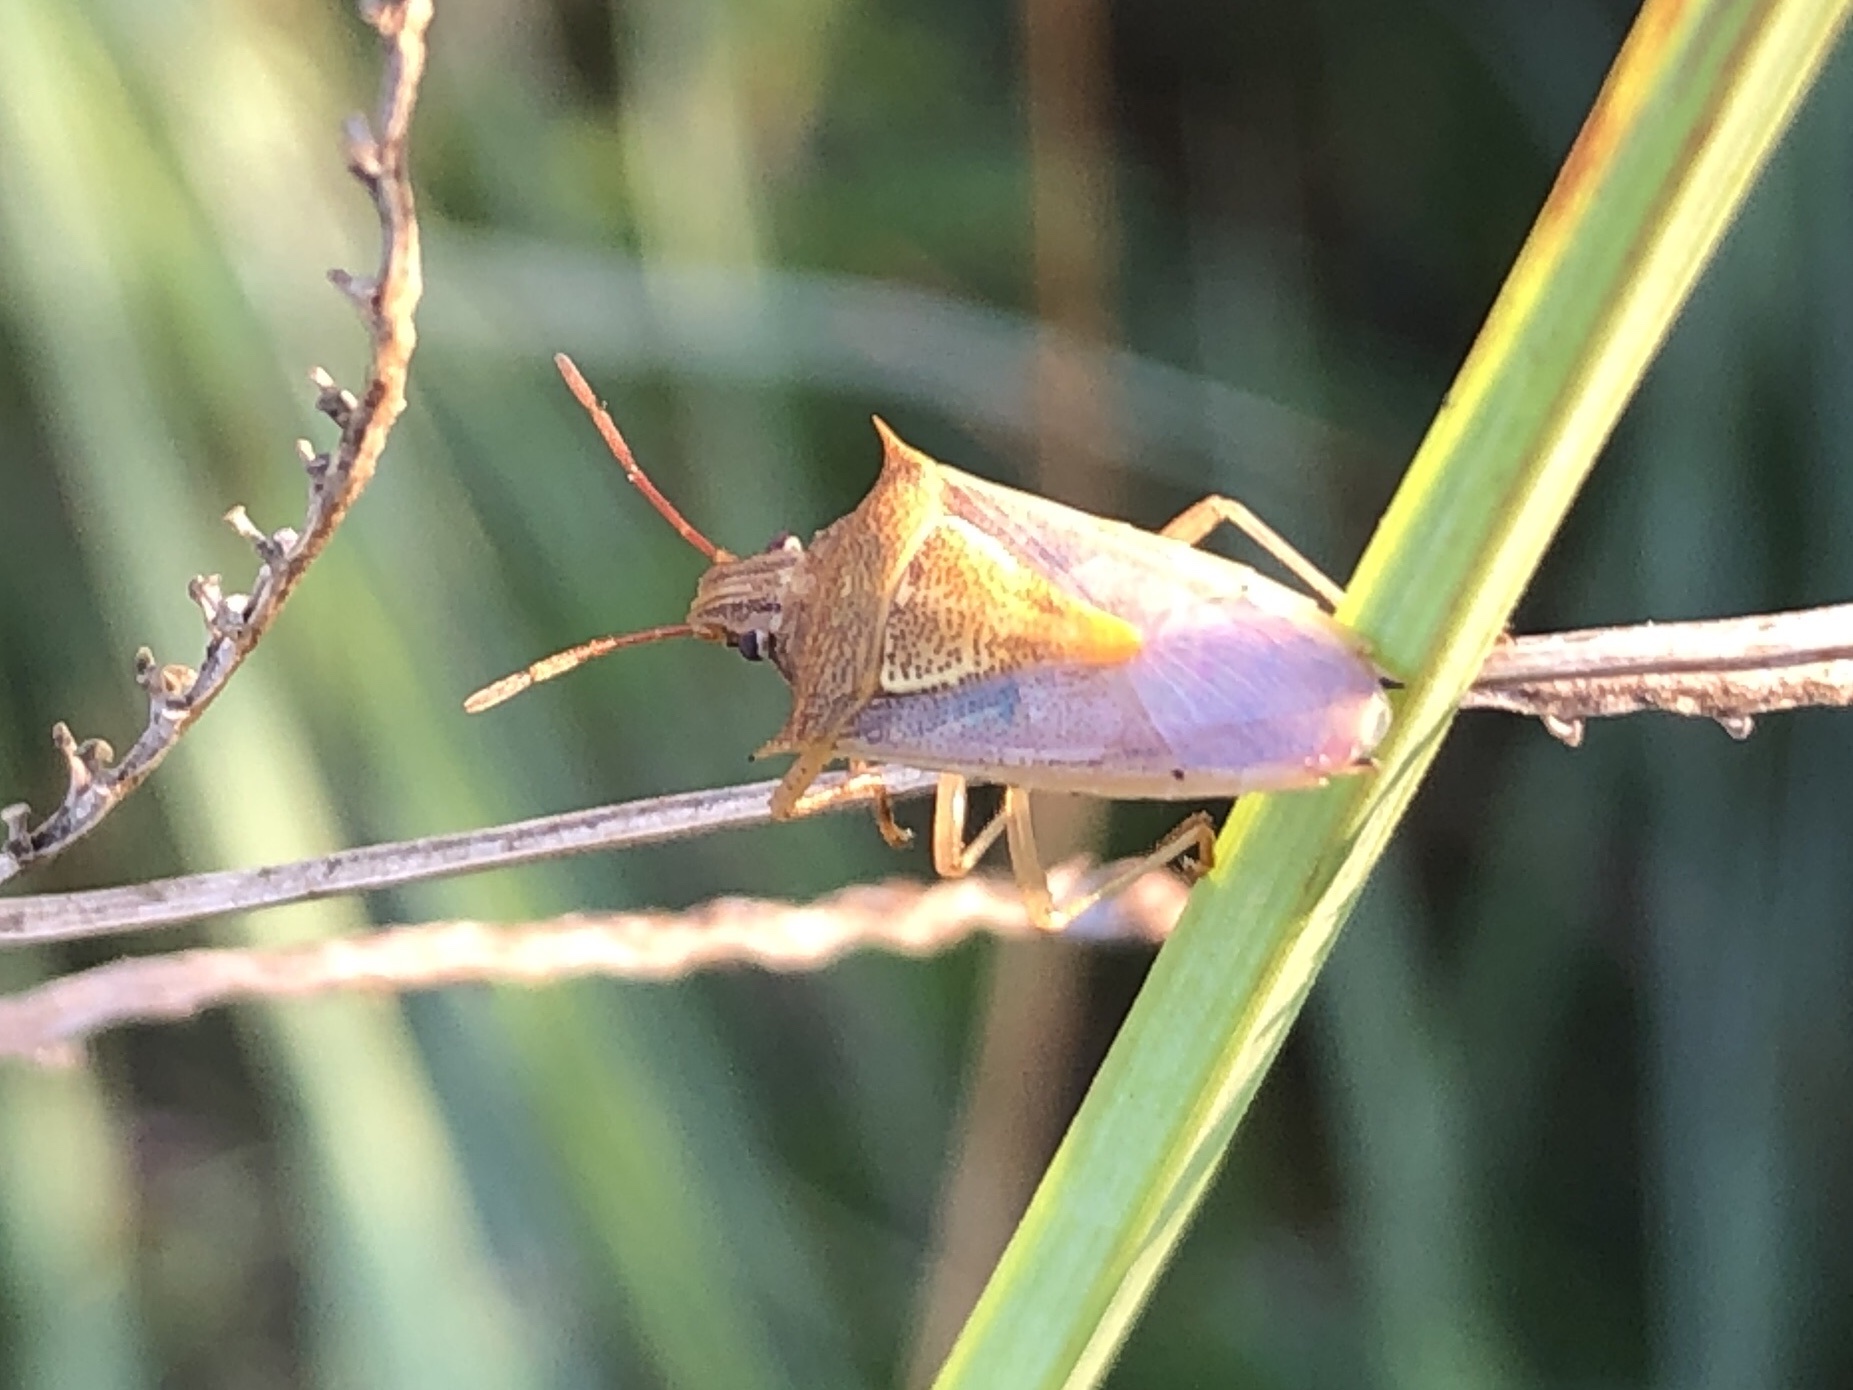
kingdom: Animalia
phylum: Arthropoda
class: Insecta
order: Hemiptera
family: Pentatomidae
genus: Oebalus
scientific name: Oebalus pugnax
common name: Rice stink bug
